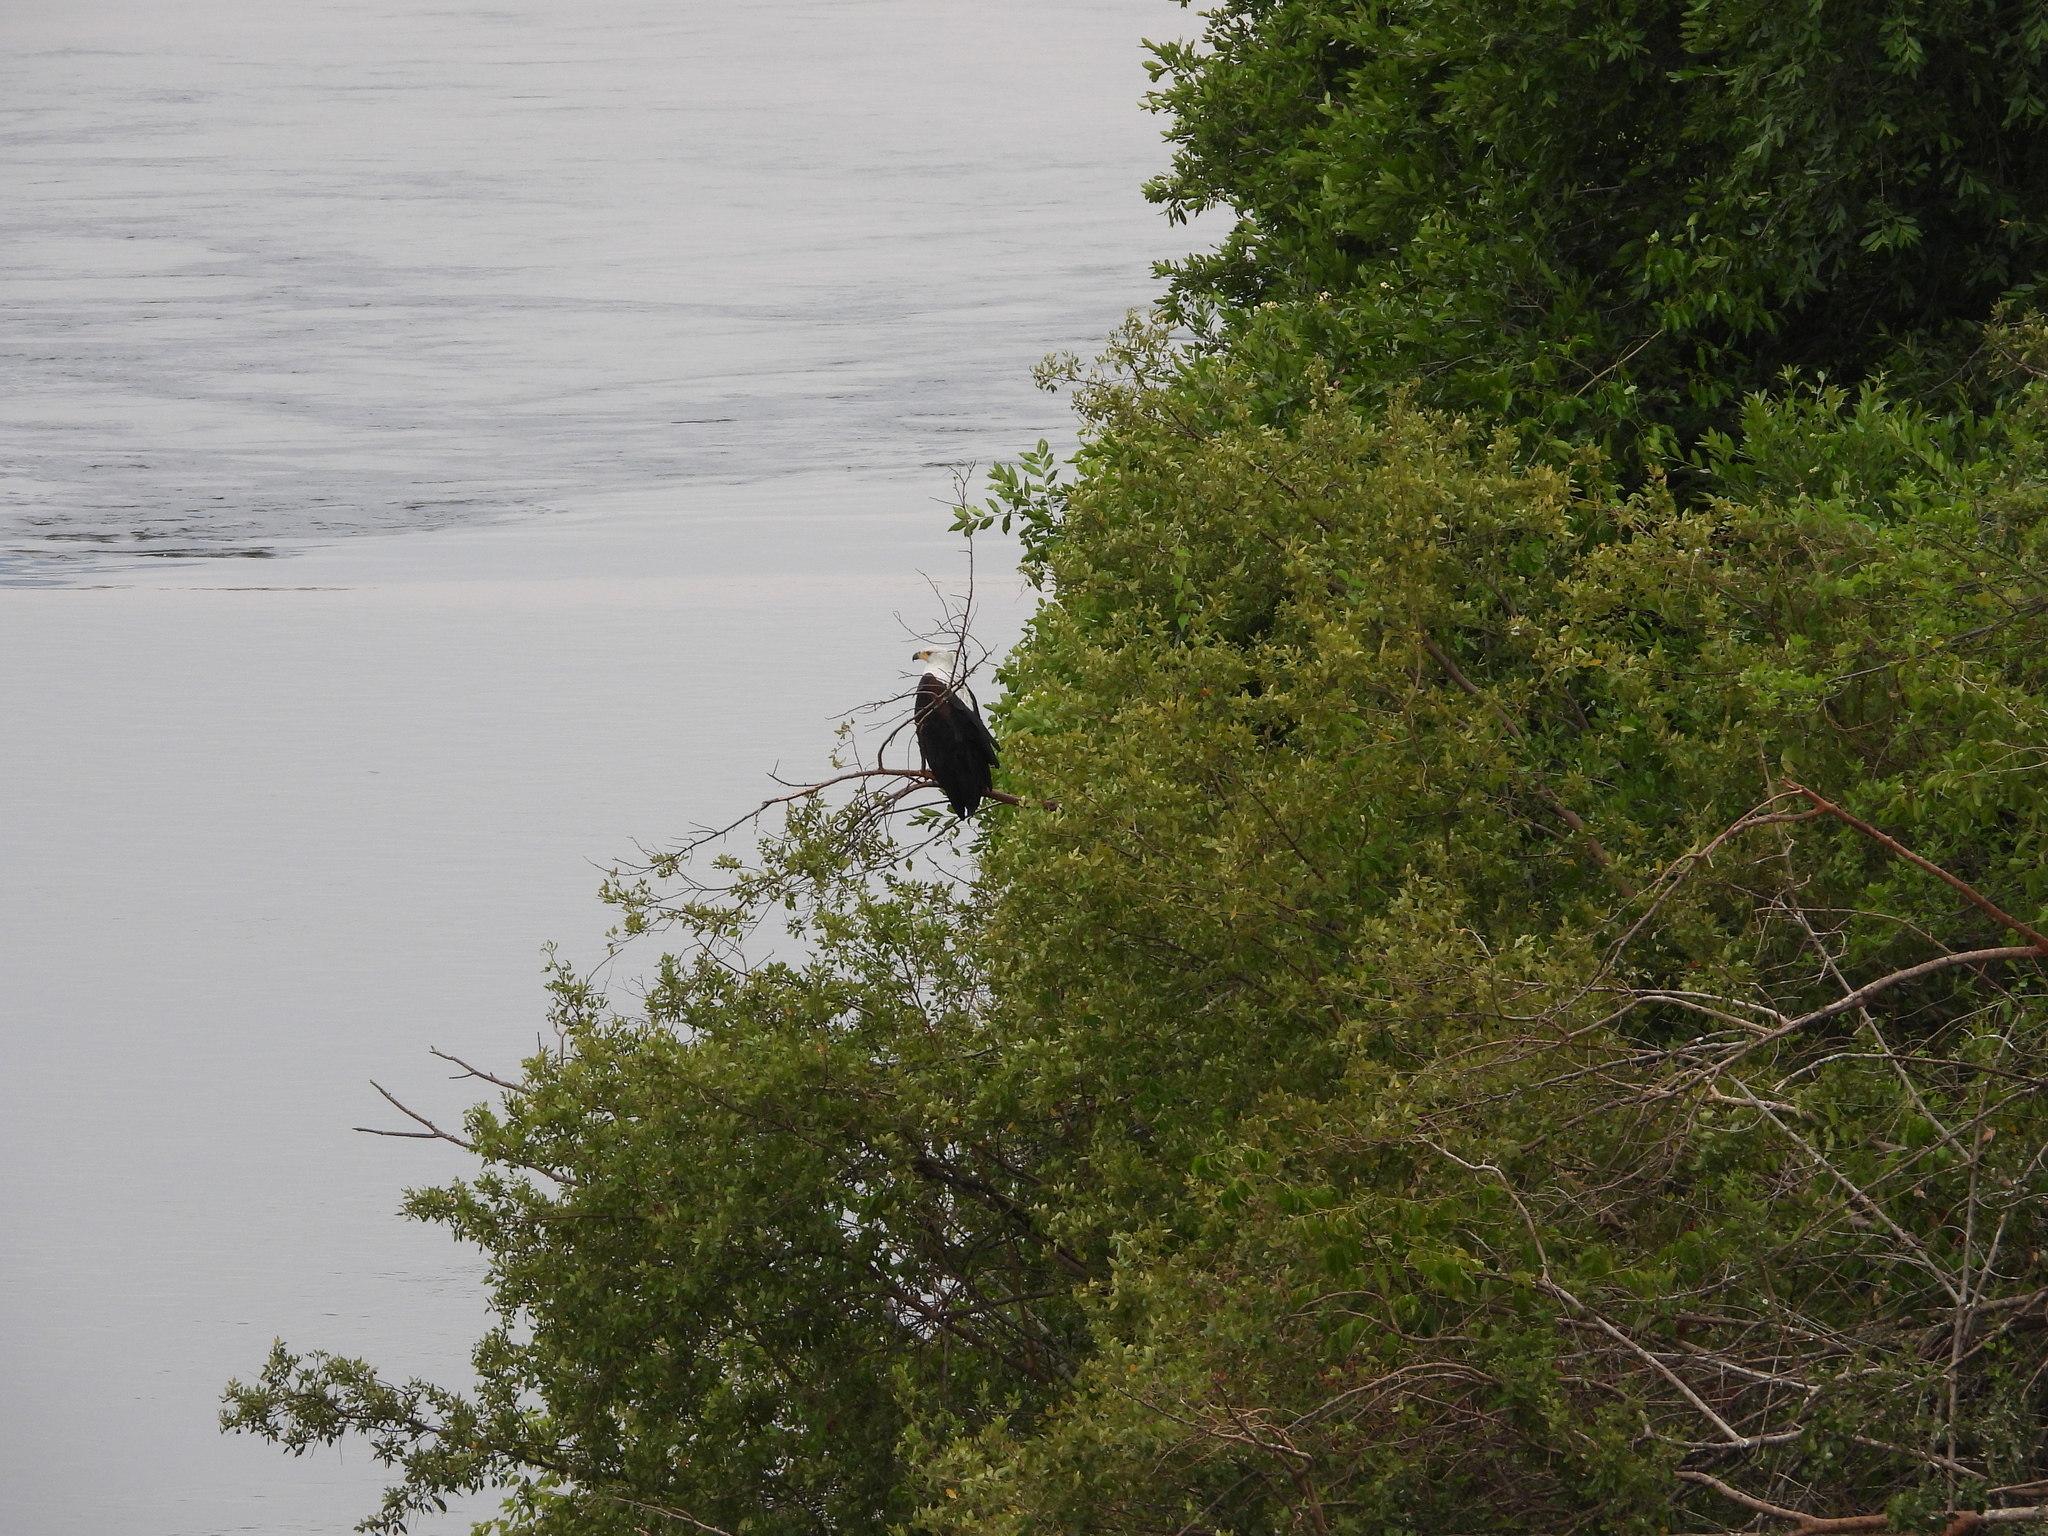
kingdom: Animalia
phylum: Chordata
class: Aves
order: Accipitriformes
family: Accipitridae
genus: Haliaeetus
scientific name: Haliaeetus vocifer
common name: African fish eagle
